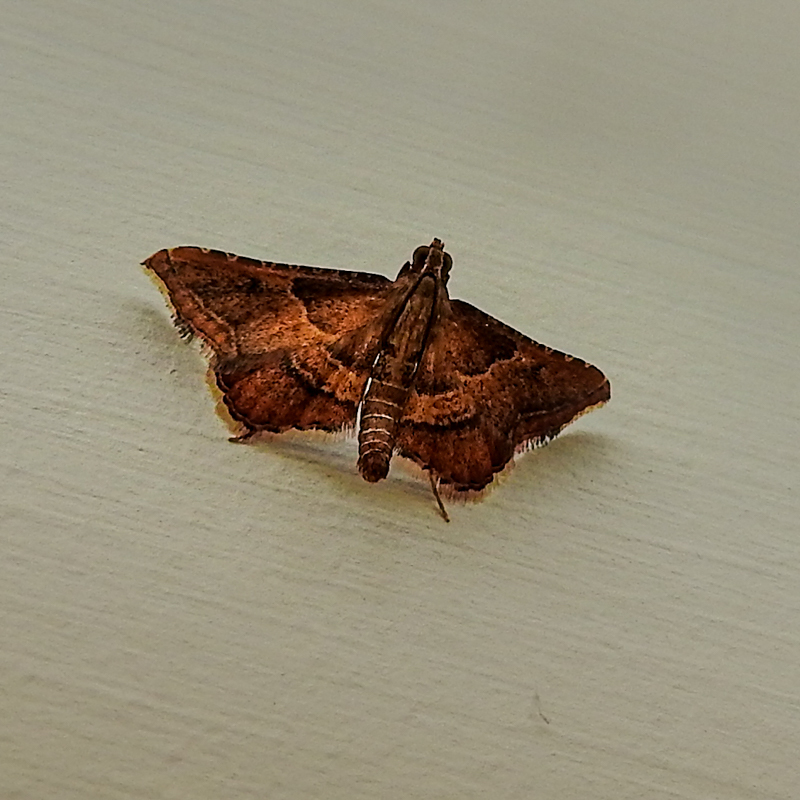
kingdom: Animalia
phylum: Arthropoda
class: Insecta
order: Lepidoptera
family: Pyralidae
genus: Endotricha
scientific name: Endotricha flammealis
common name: Rosy tabby
